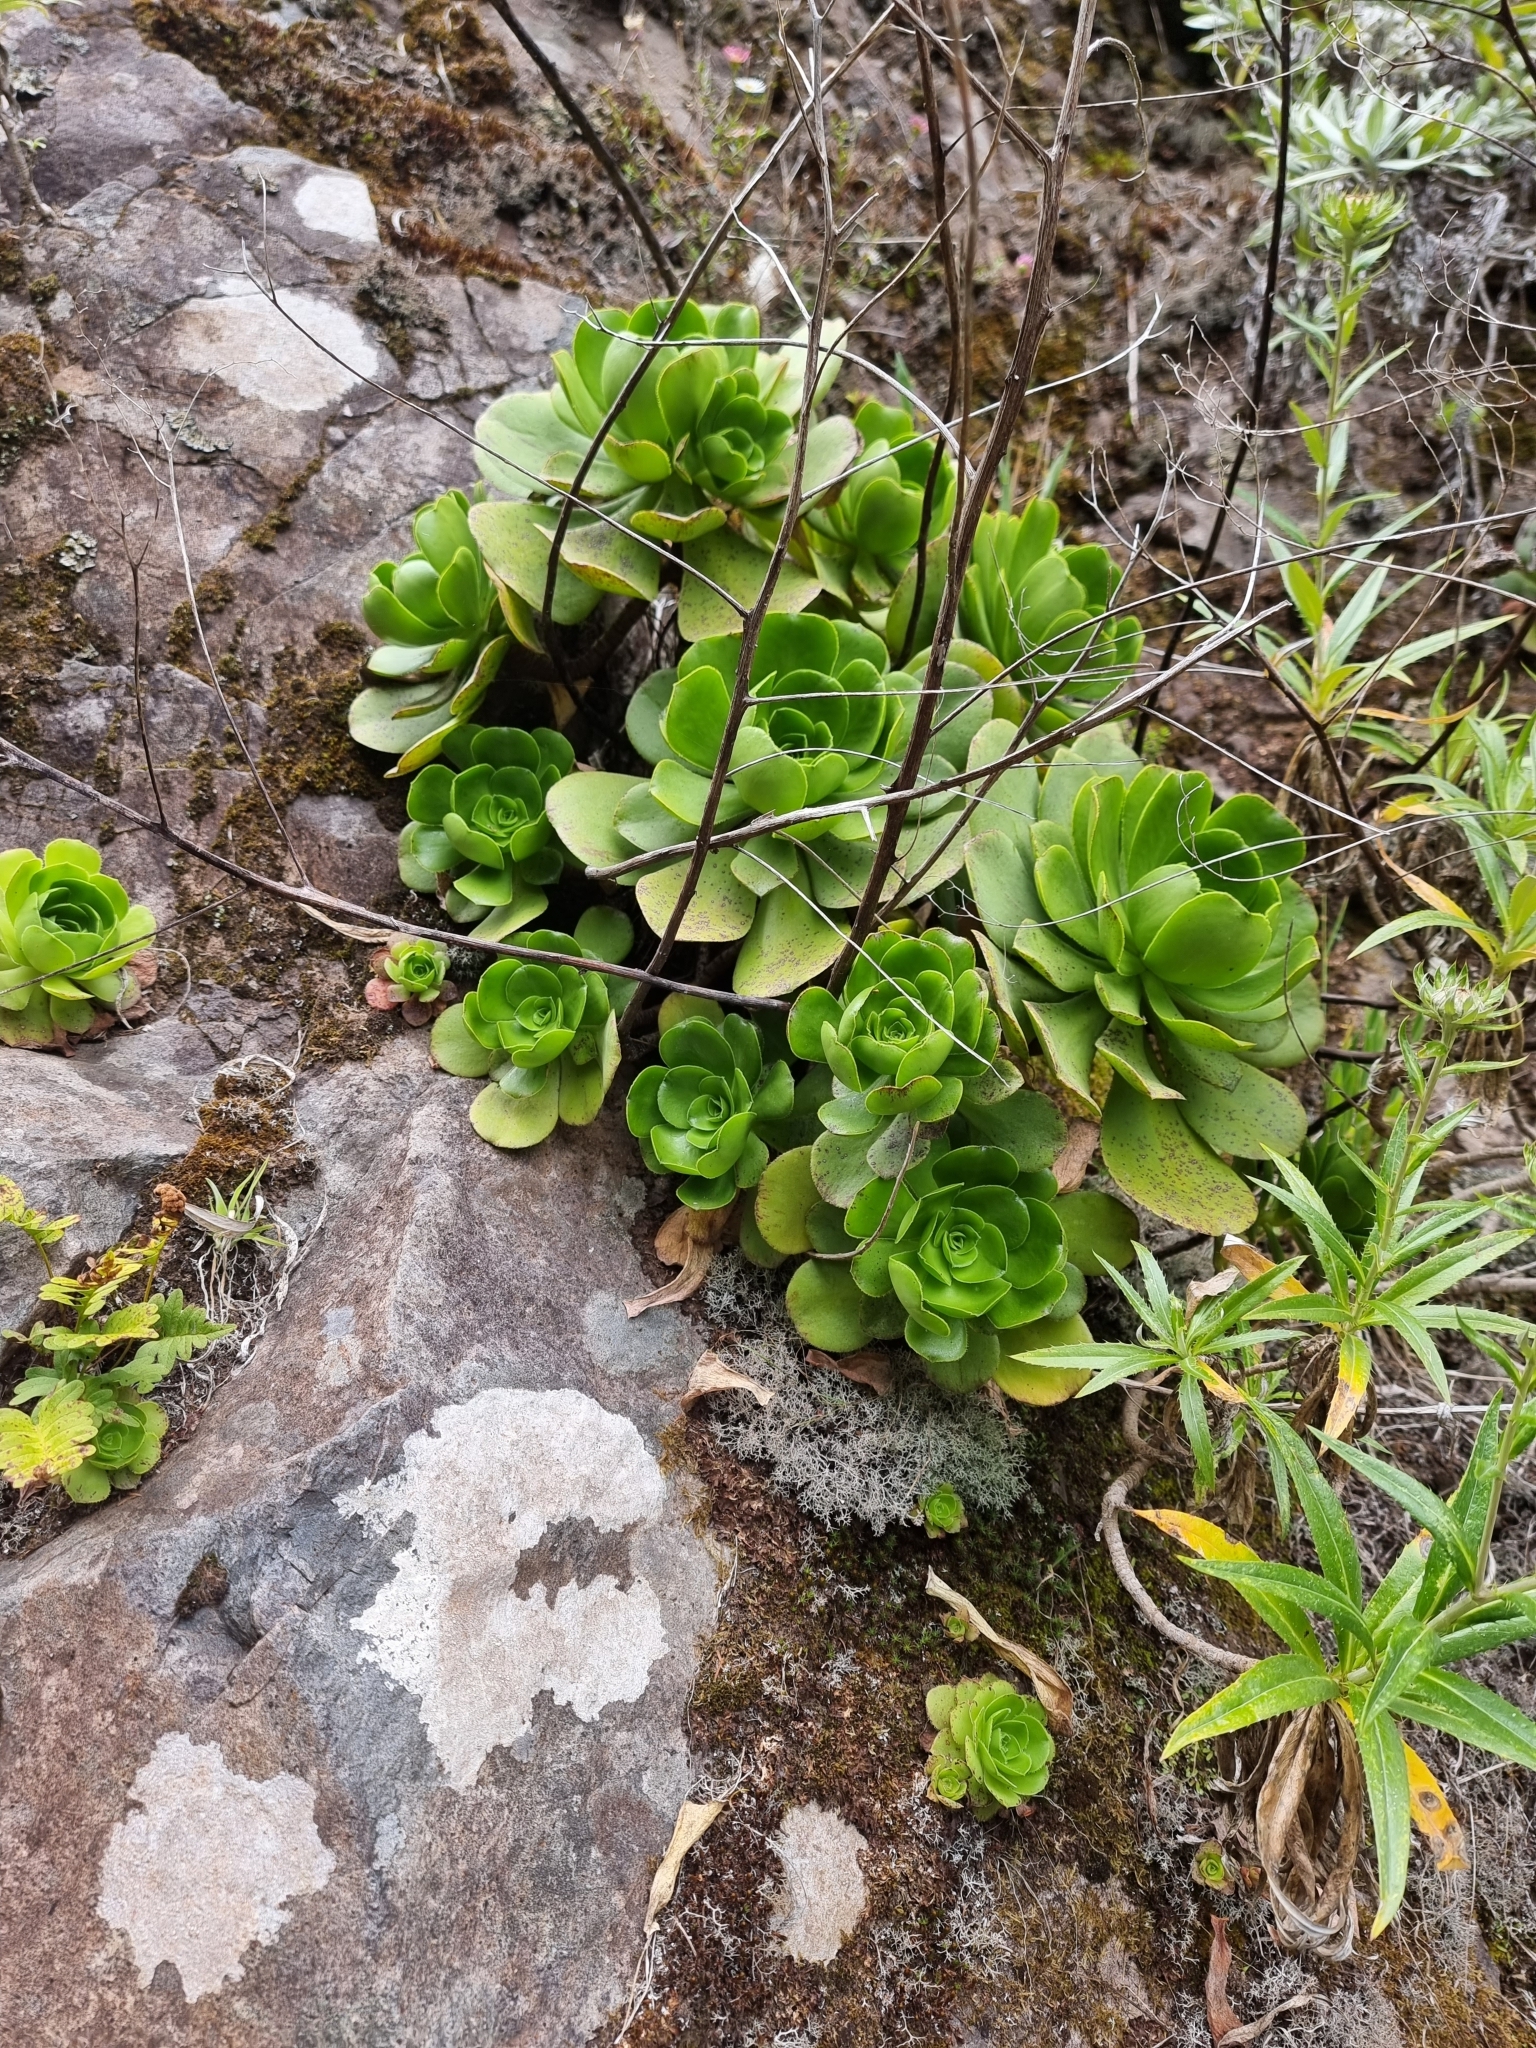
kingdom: Plantae
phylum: Tracheophyta
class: Magnoliopsida
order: Saxifragales
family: Crassulaceae
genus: Aeonium
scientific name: Aeonium glutinosum
